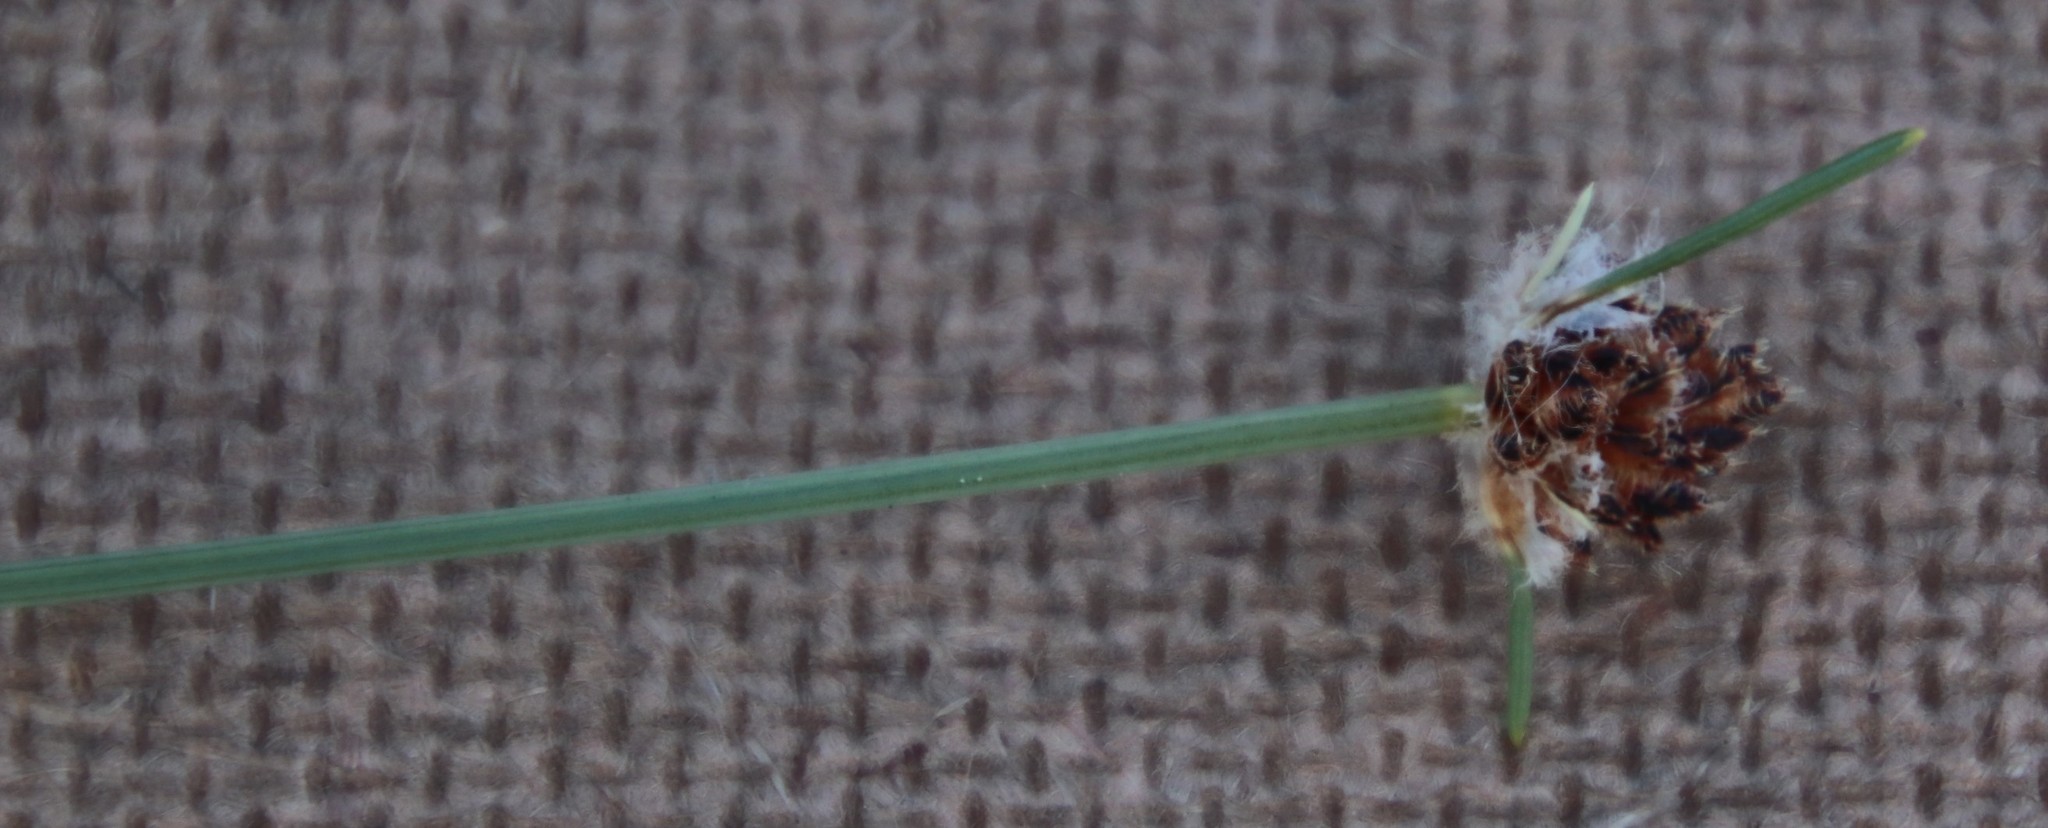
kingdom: Plantae
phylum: Tracheophyta
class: Liliopsida
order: Poales
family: Cyperaceae
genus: Ficinia
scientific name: Ficinia laciniata
